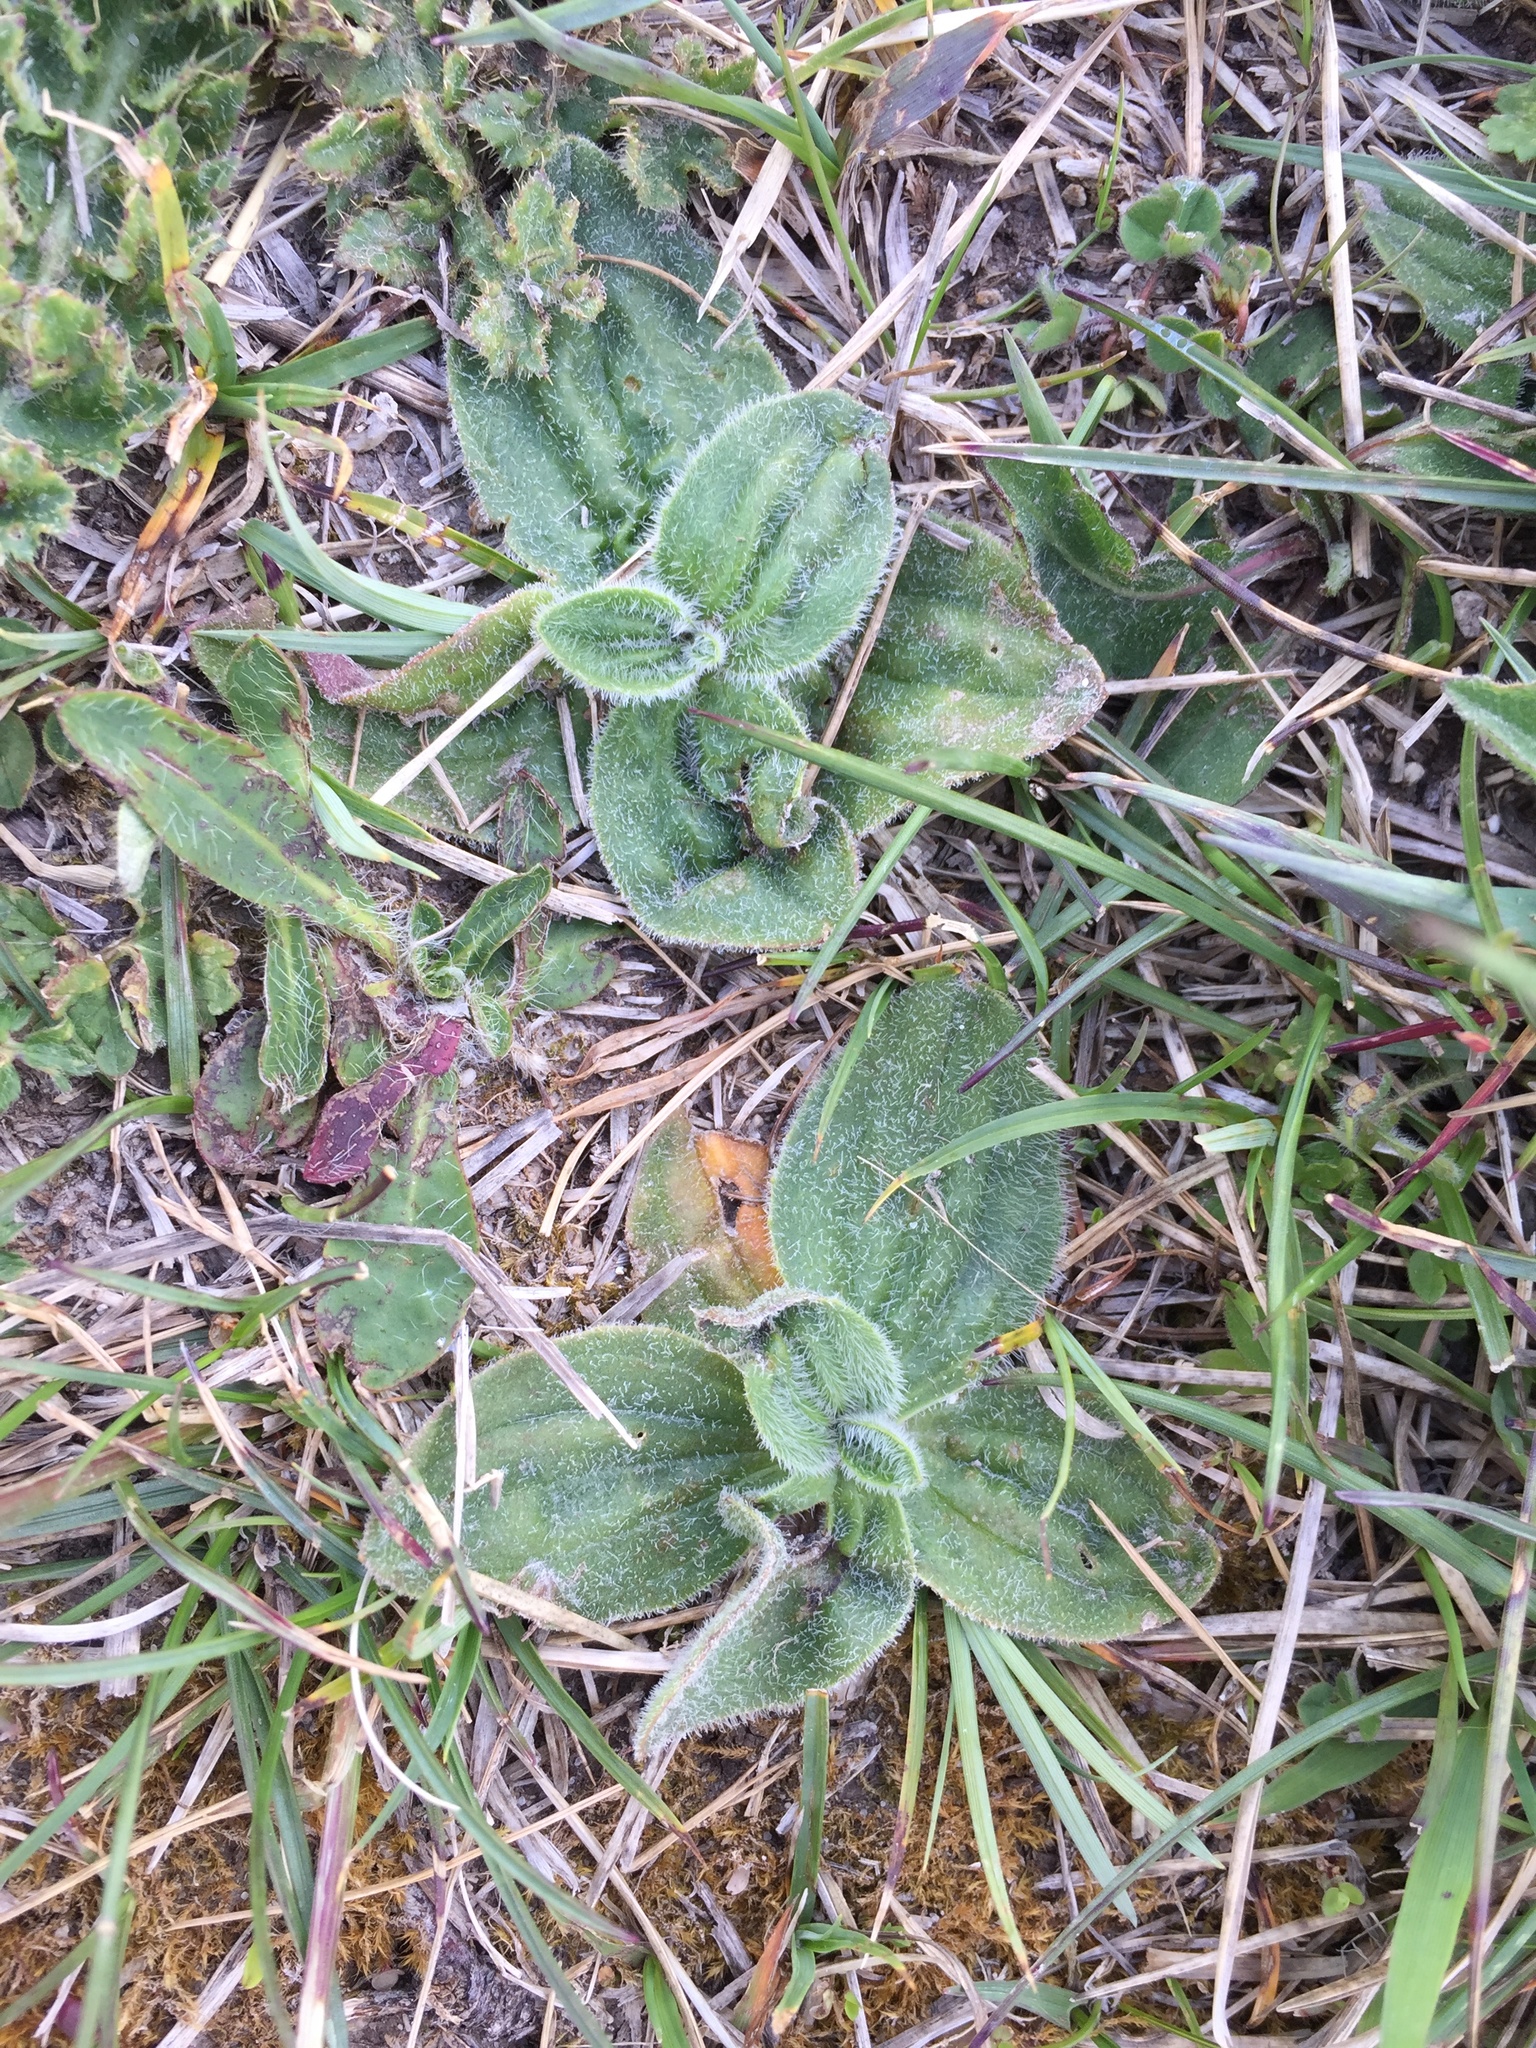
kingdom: Plantae
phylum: Tracheophyta
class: Magnoliopsida
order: Lamiales
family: Plantaginaceae
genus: Plantago
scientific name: Plantago media
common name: Hoary plantain
